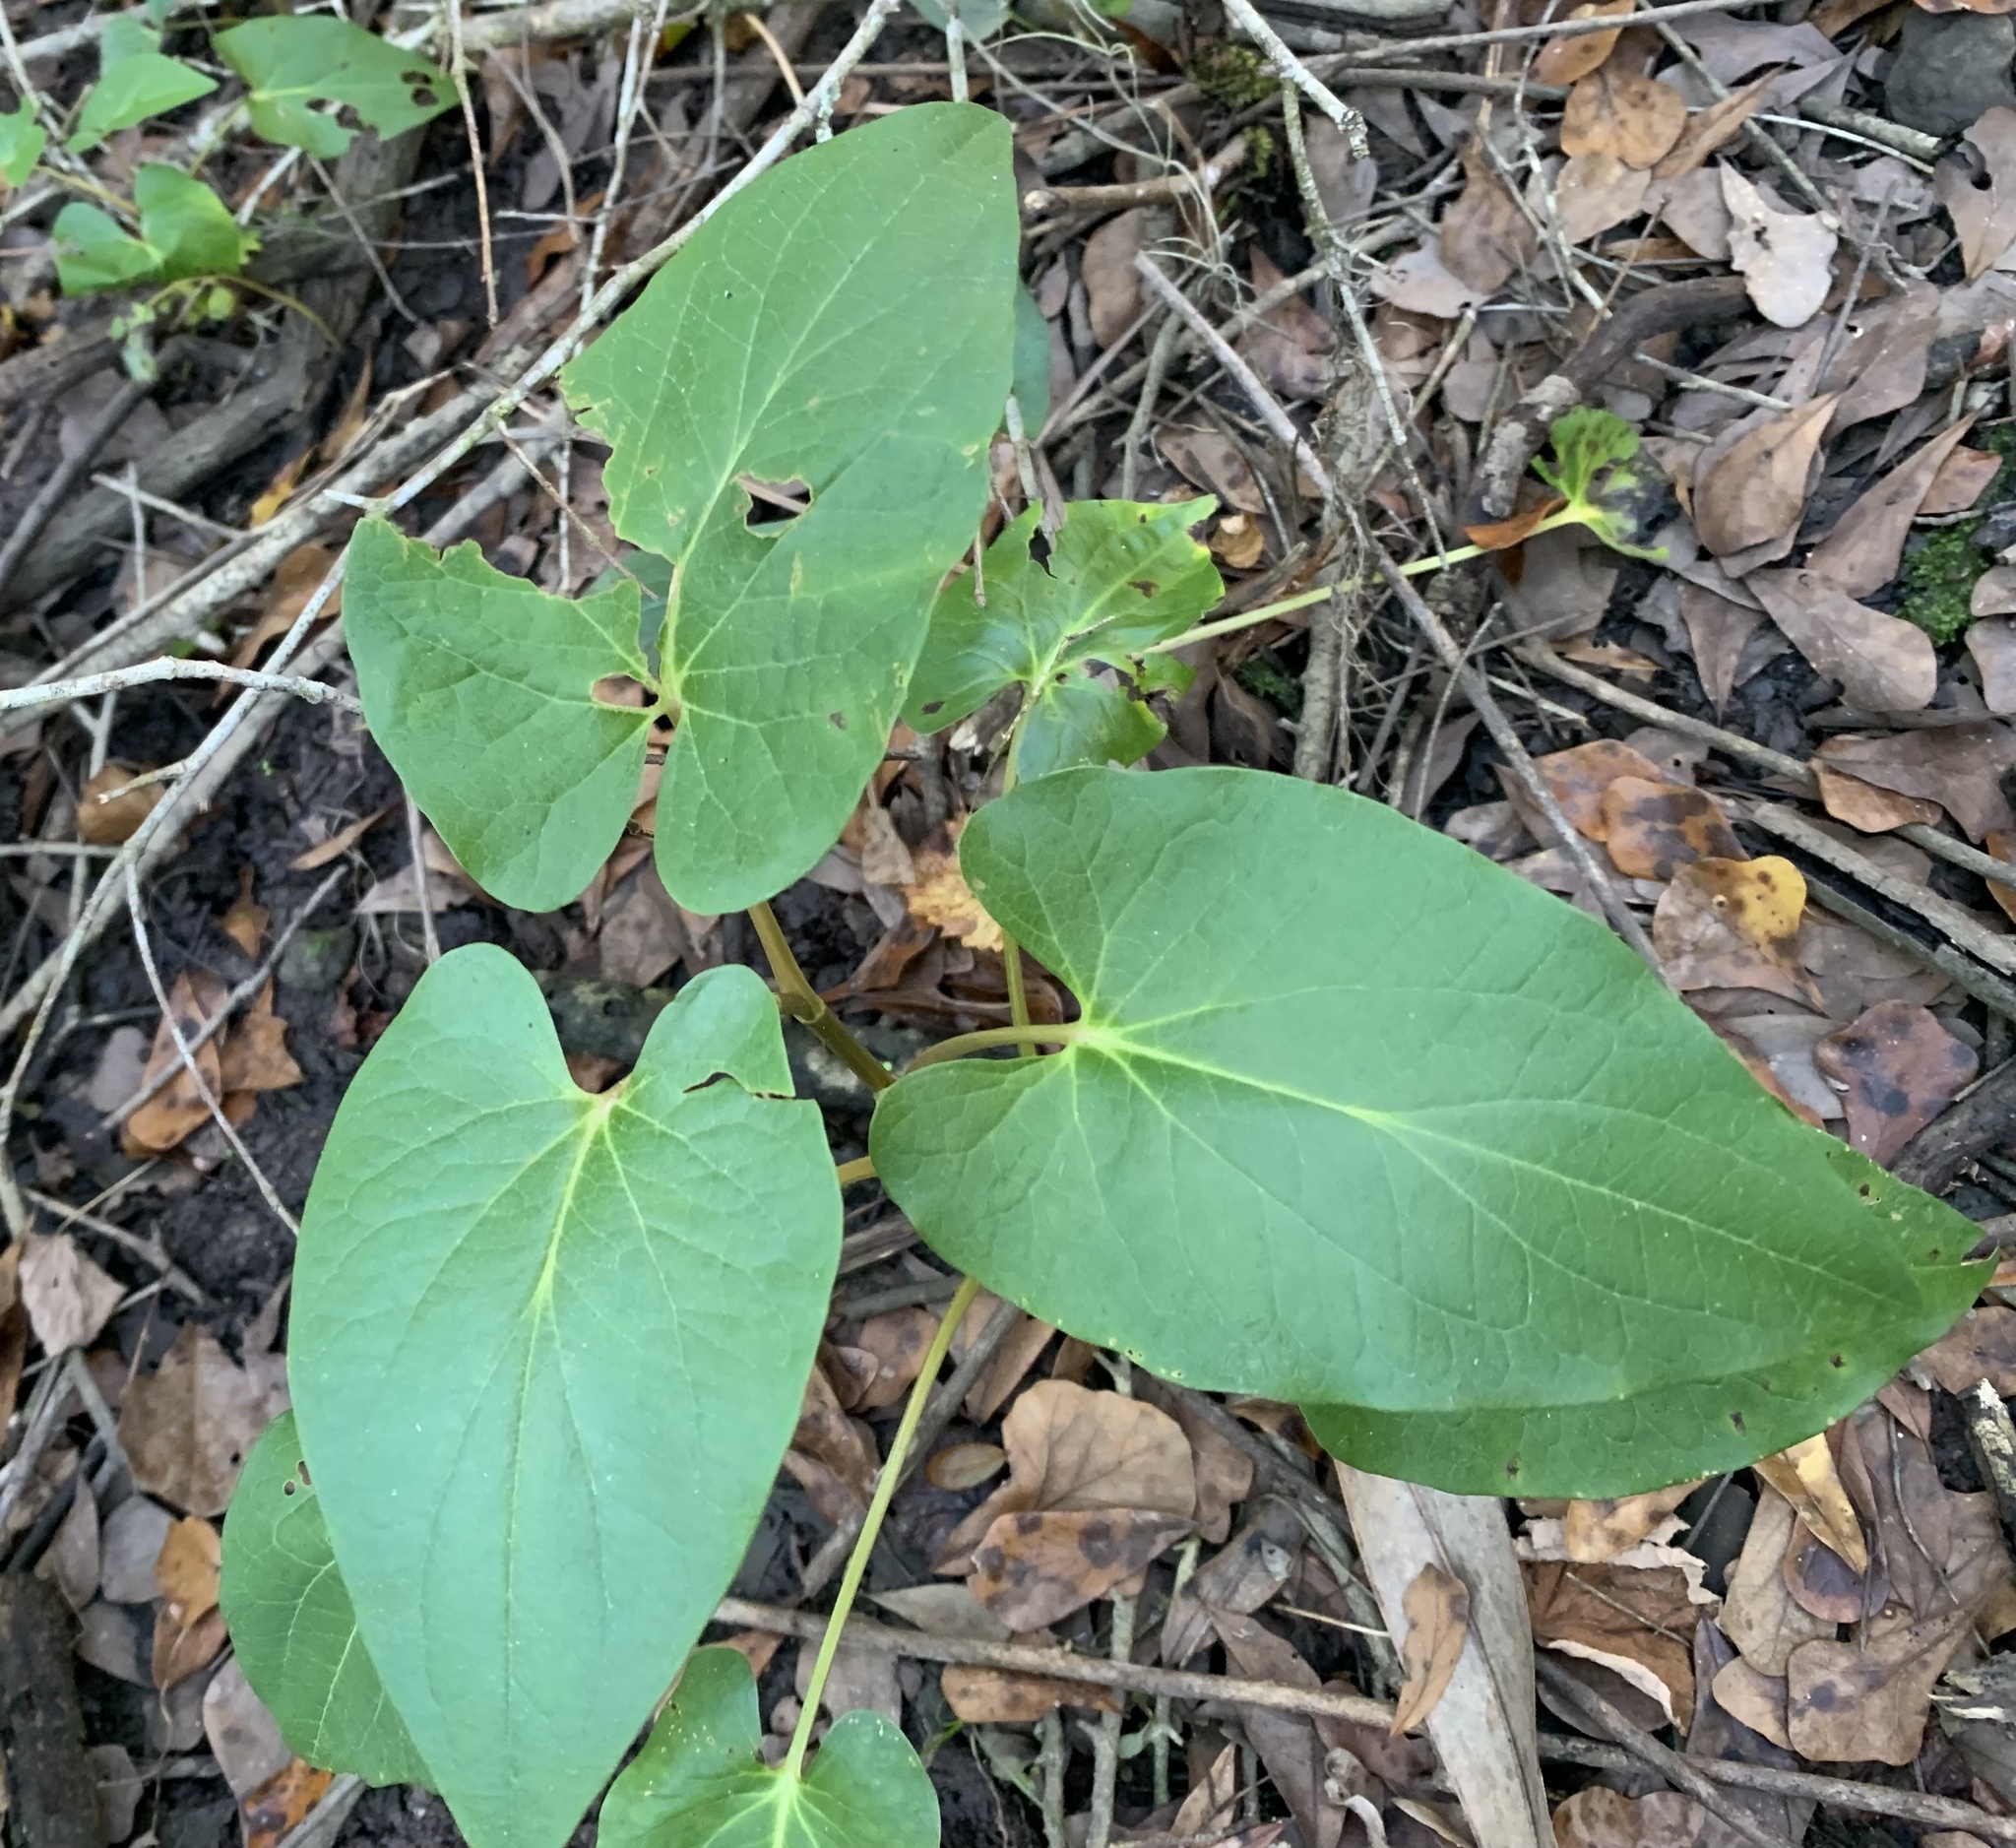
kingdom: Plantae
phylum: Tracheophyta
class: Magnoliopsida
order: Piperales
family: Saururaceae
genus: Saururus
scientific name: Saururus cernuus
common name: Lizard's-tail
